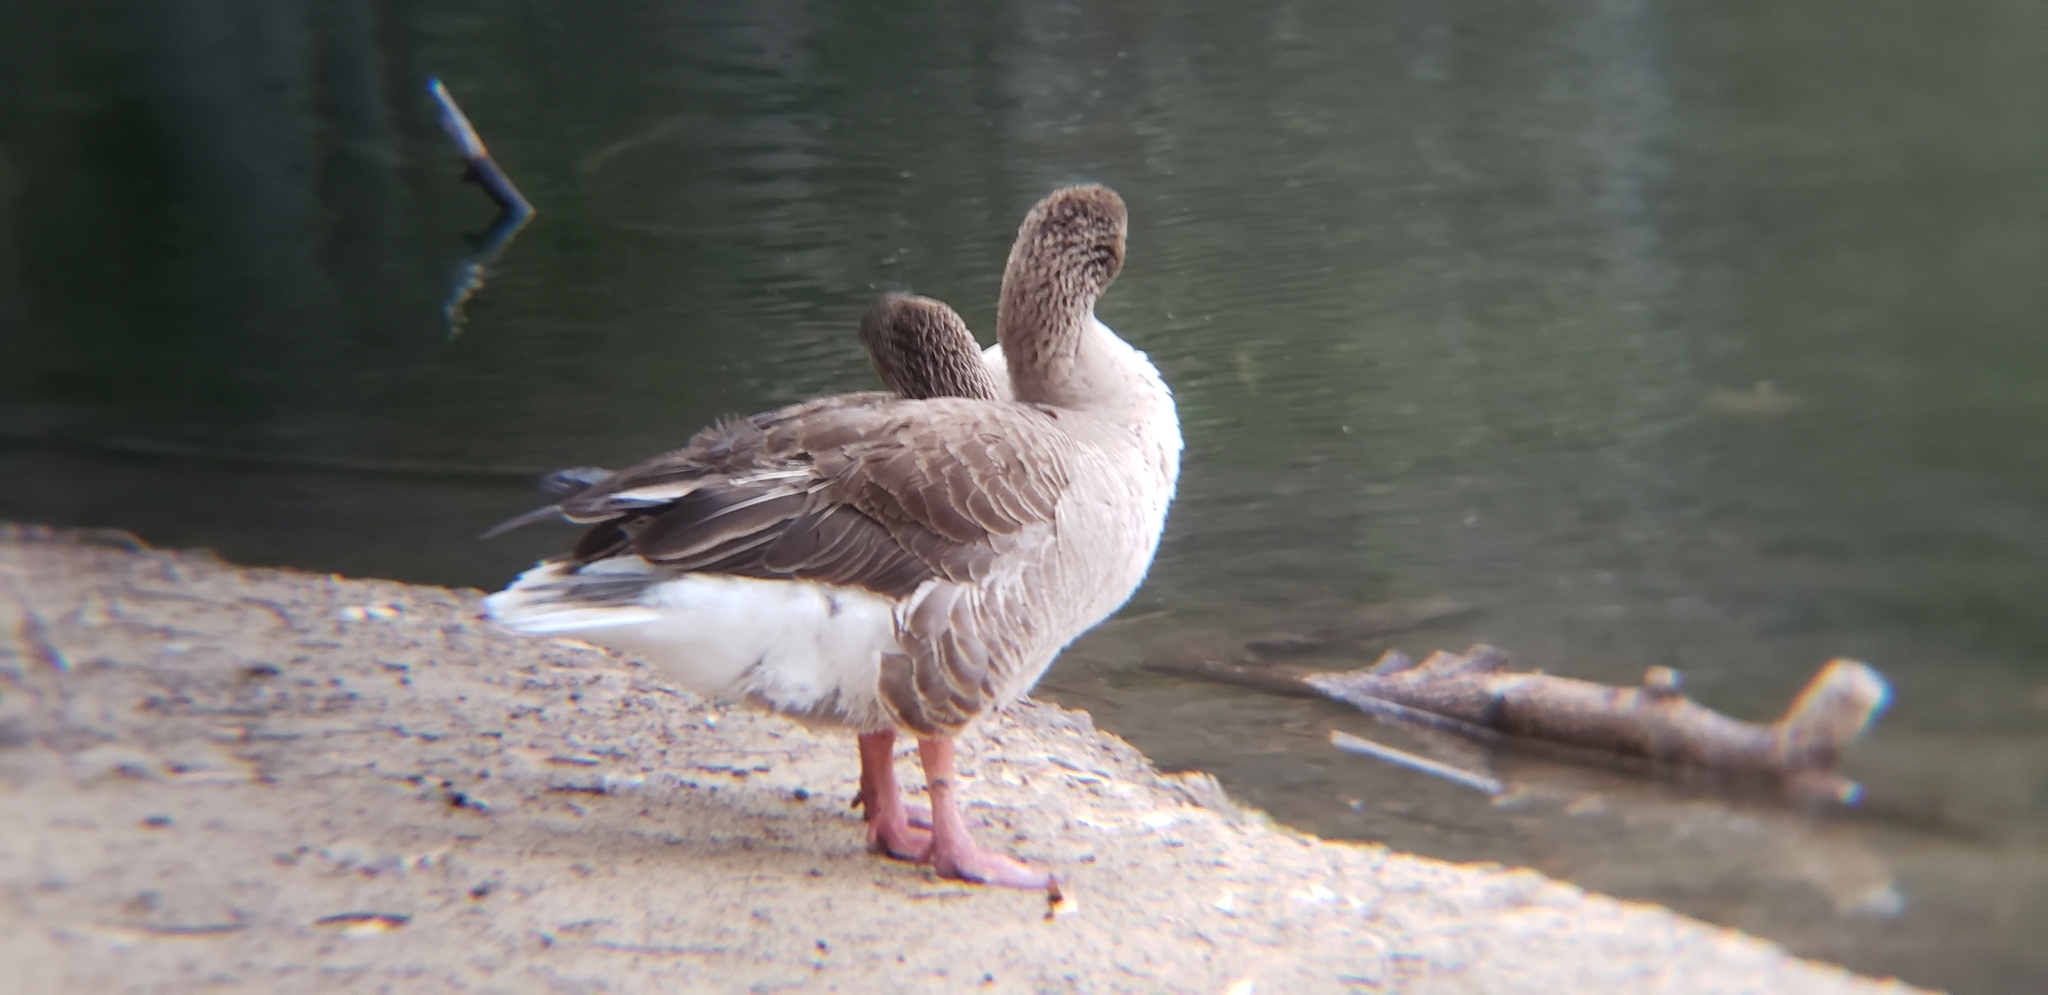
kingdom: Animalia
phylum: Chordata
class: Aves
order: Anseriformes
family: Anatidae
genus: Anser
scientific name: Anser anser
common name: Greylag goose
